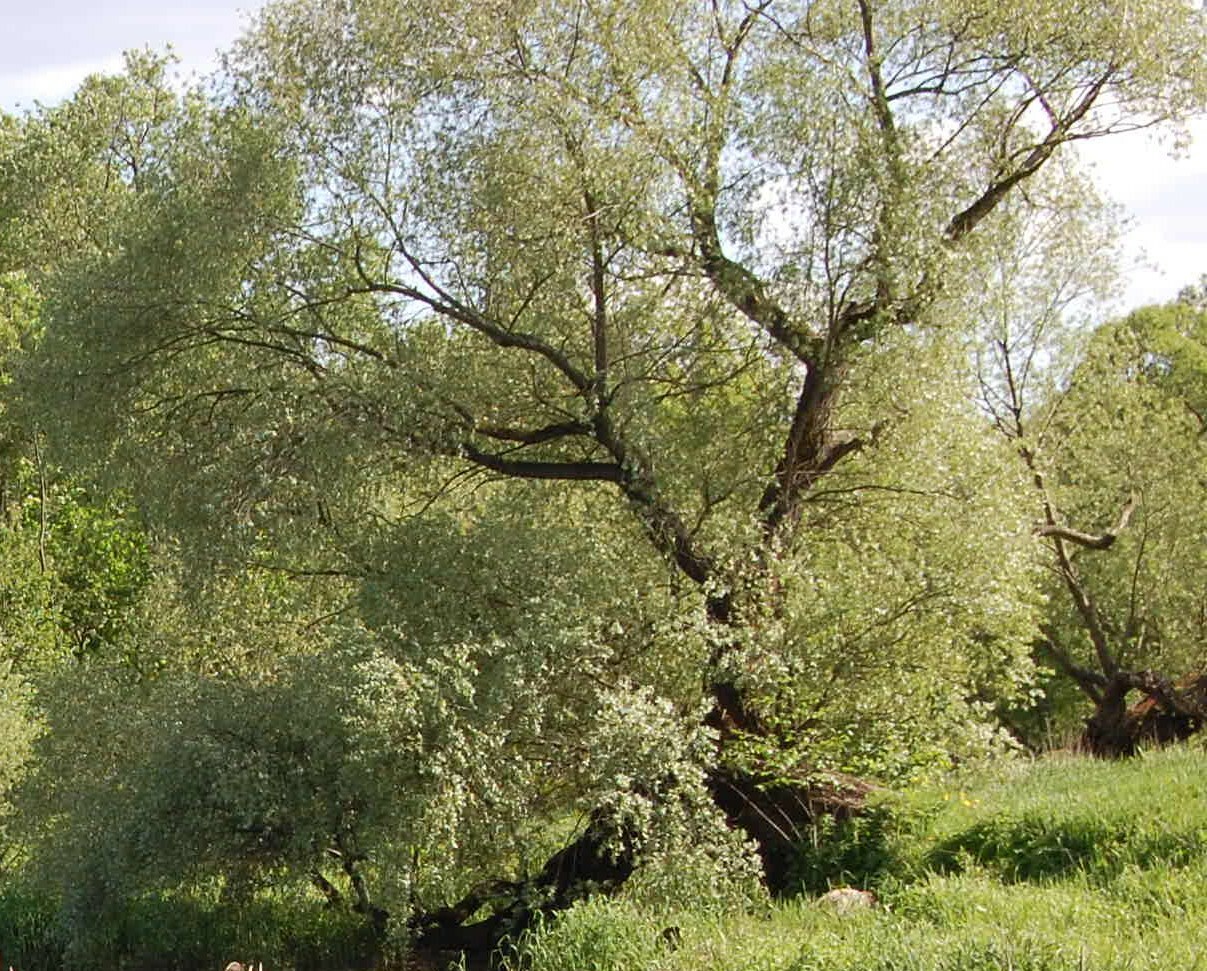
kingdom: Plantae
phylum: Tracheophyta
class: Magnoliopsida
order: Malpighiales
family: Salicaceae
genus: Salix
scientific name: Salix alba
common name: White willow
